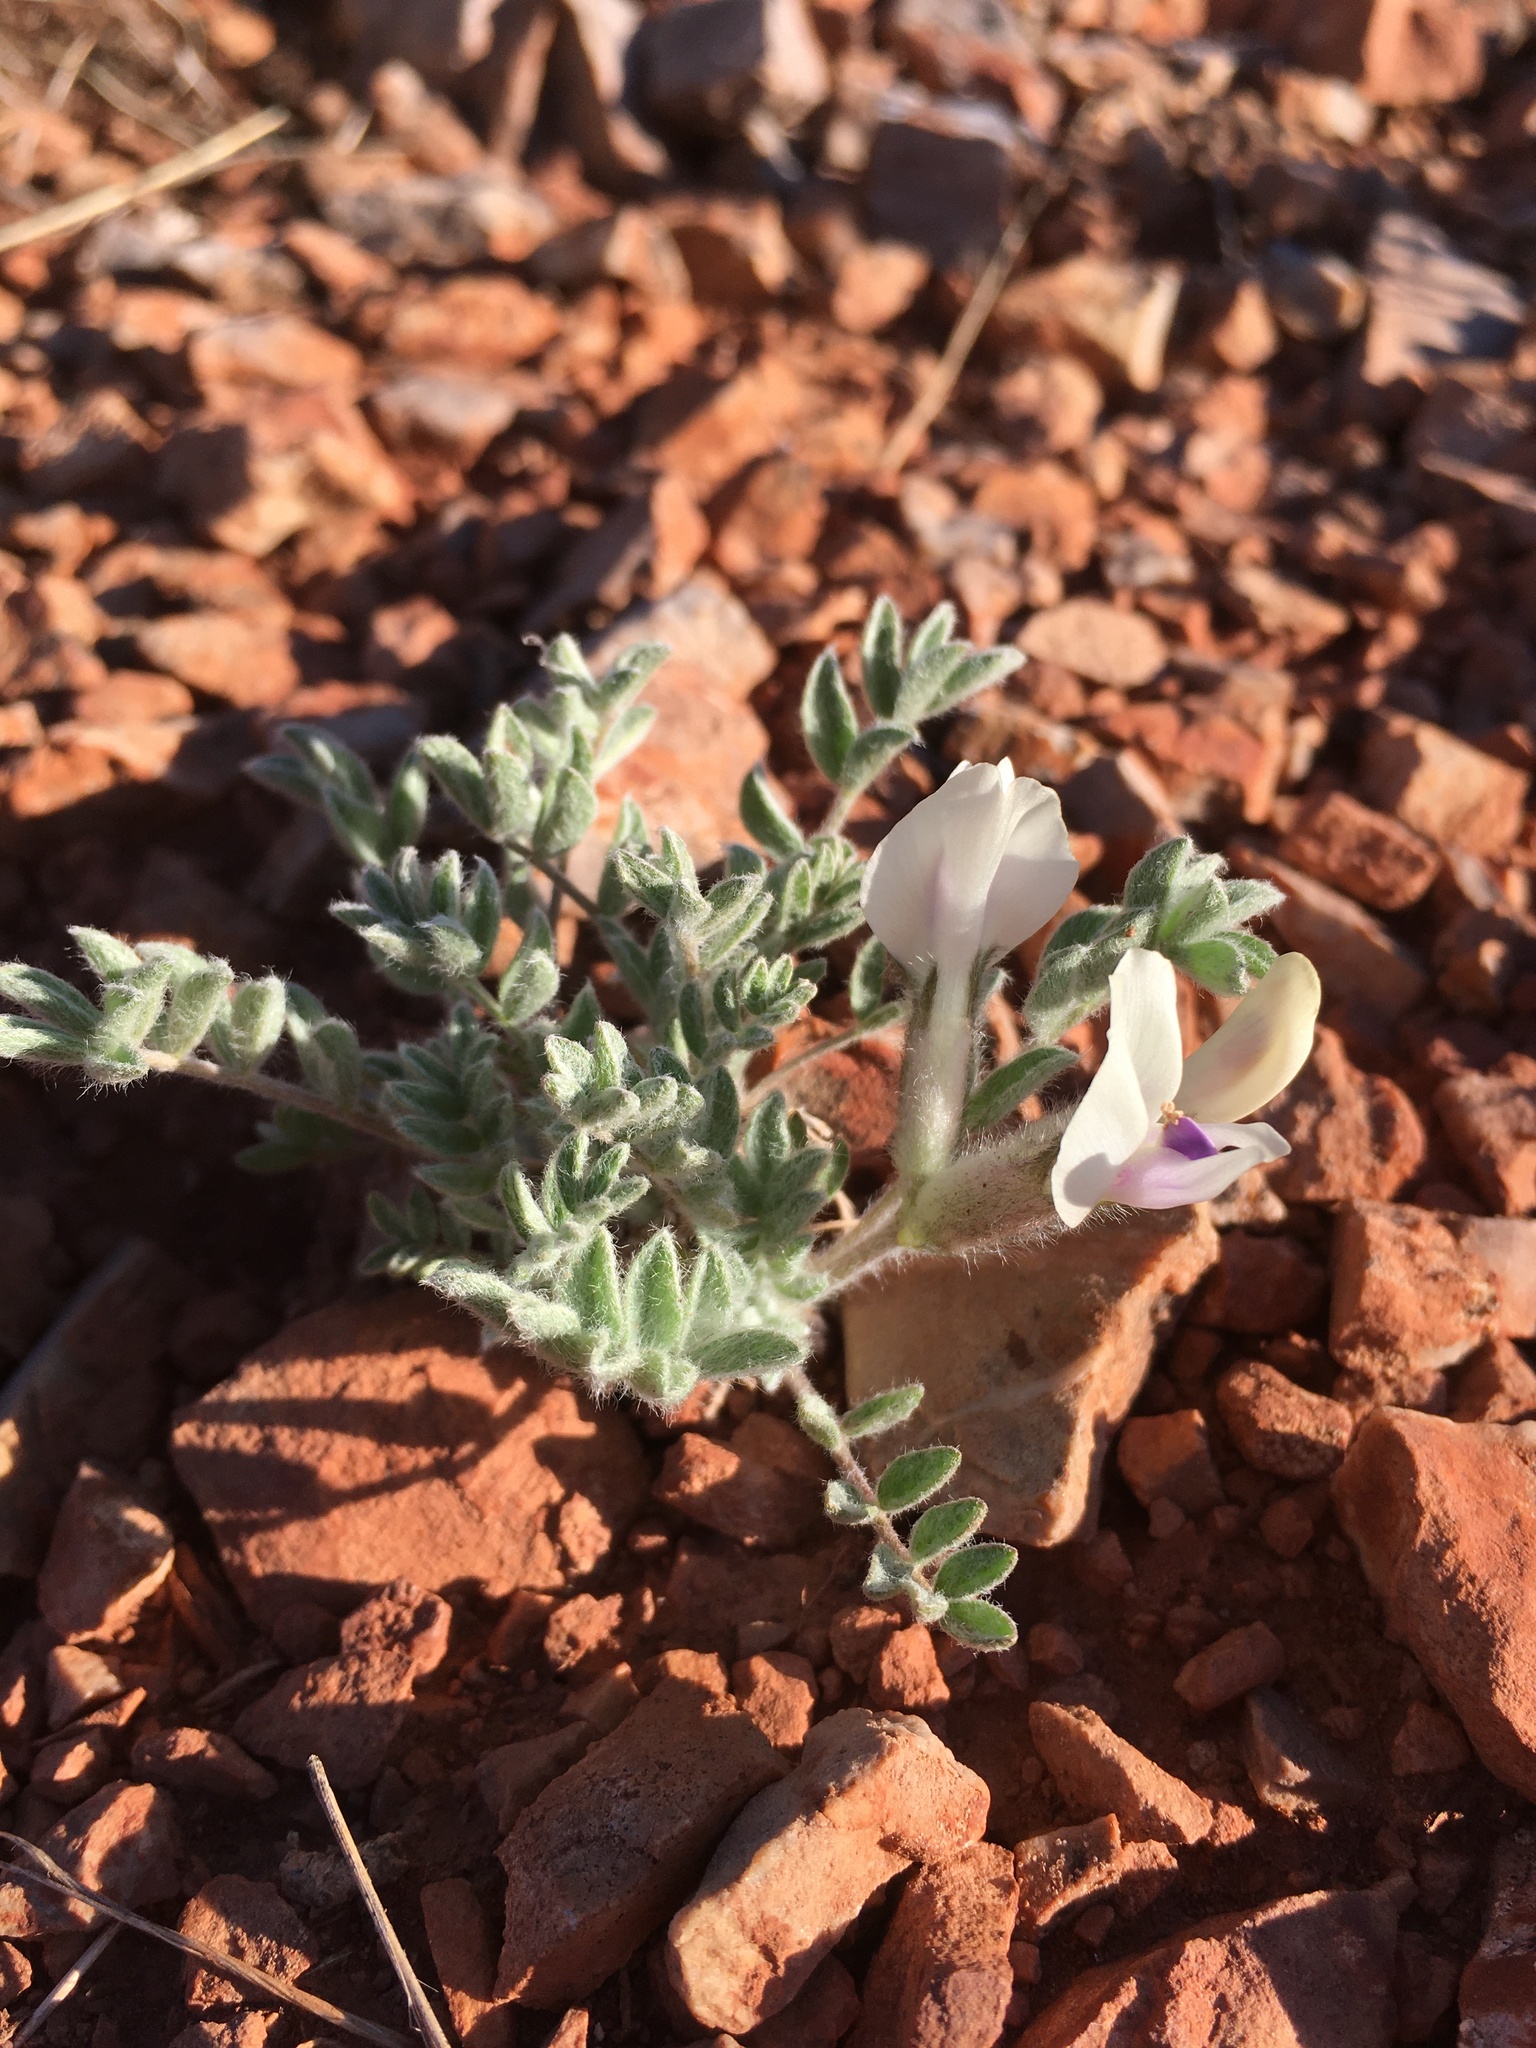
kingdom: Plantae
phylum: Tracheophyta
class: Magnoliopsida
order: Fabales
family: Fabaceae
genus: Astragalus
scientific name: Astragalus purshii
